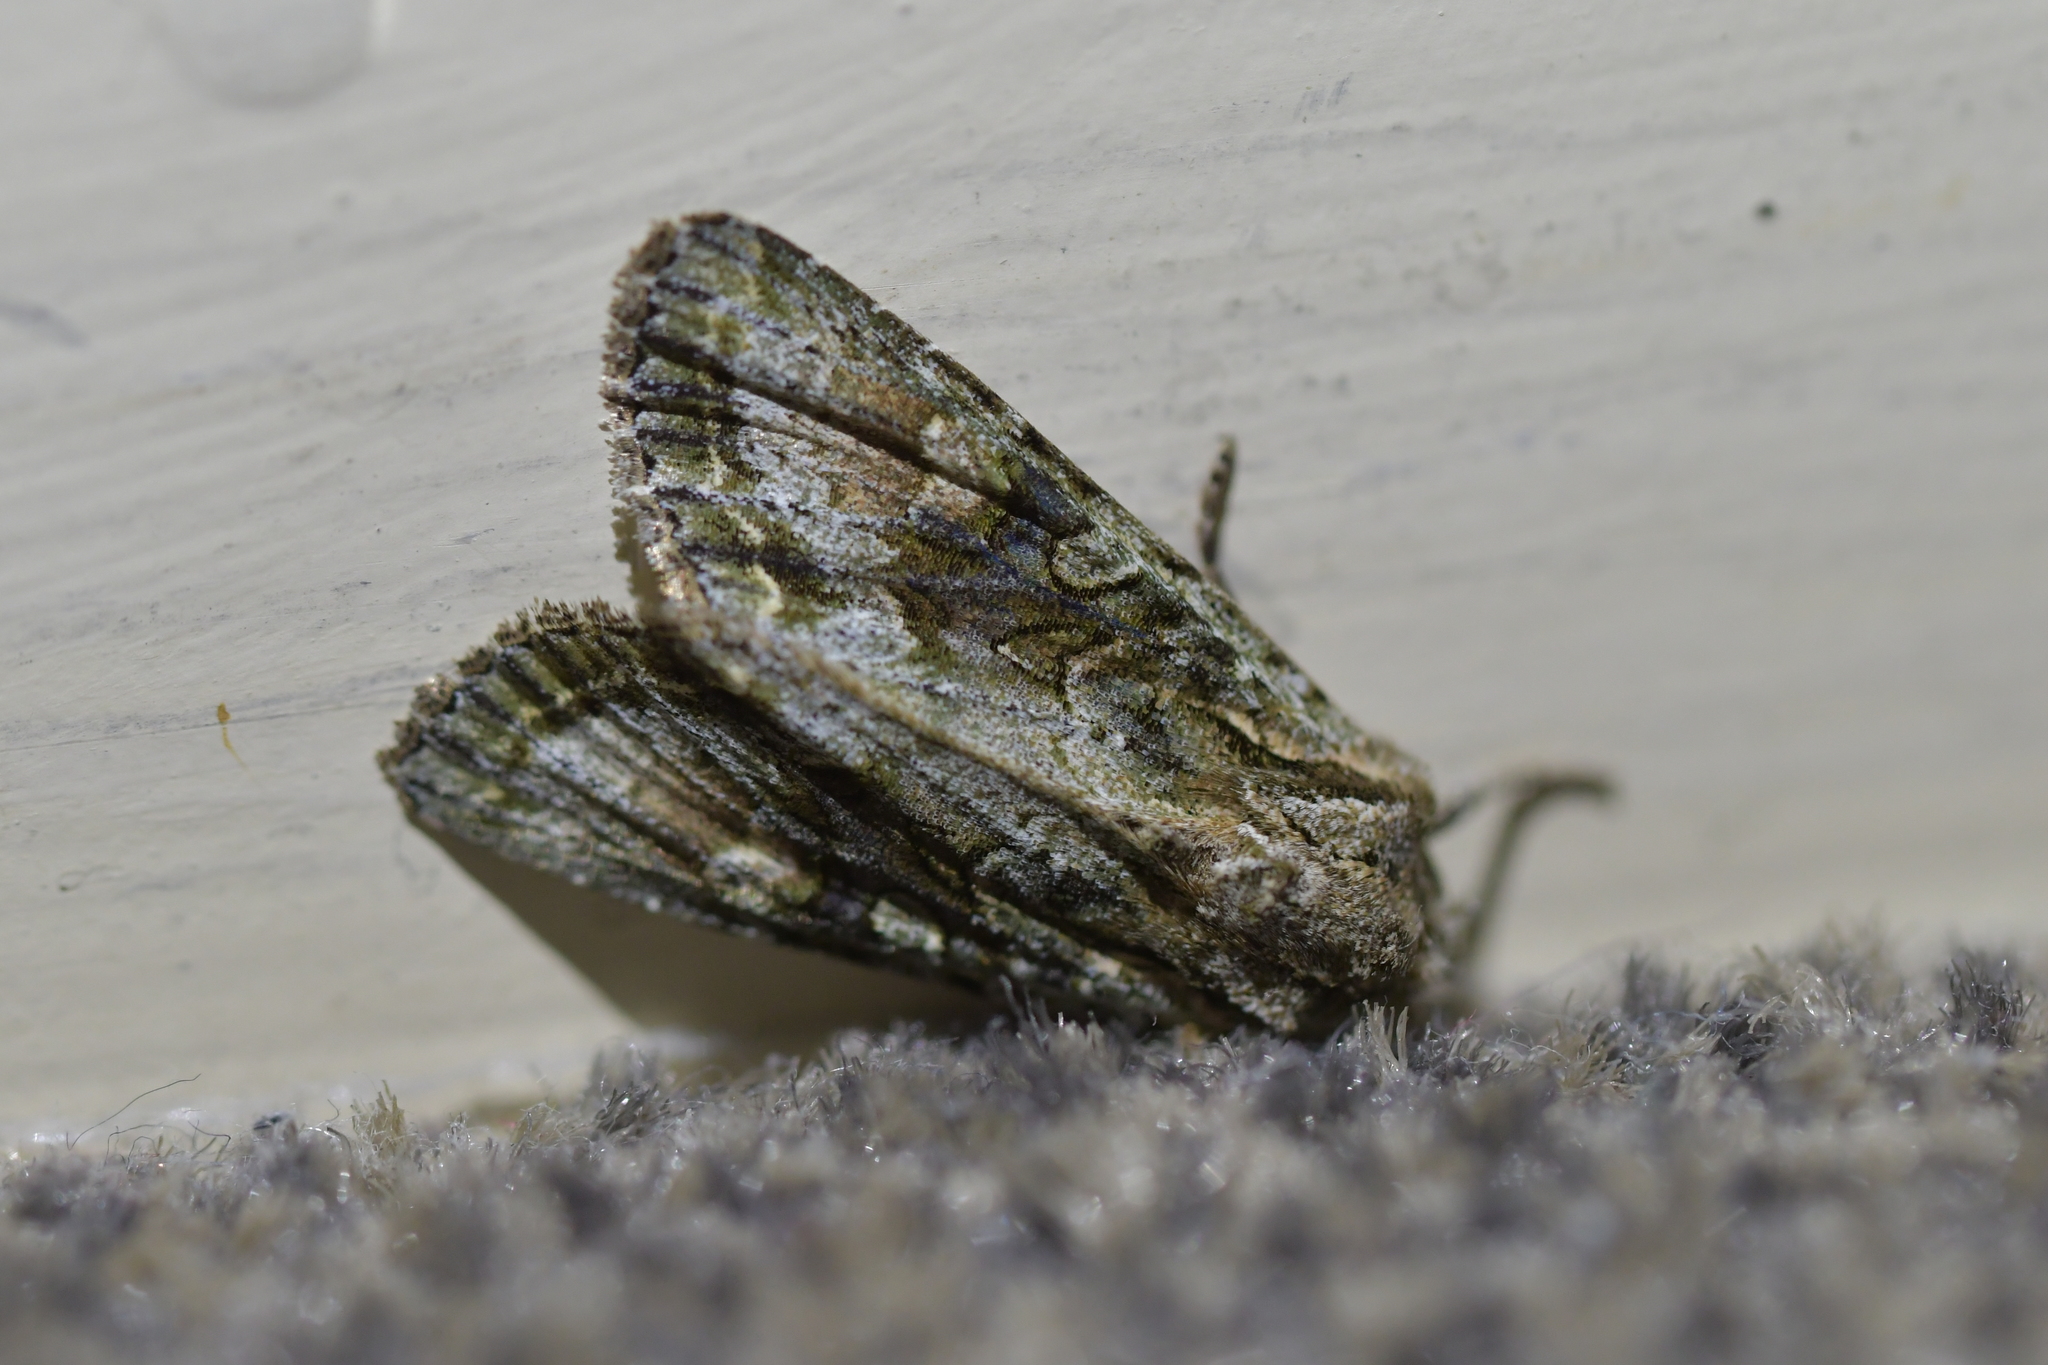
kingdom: Animalia
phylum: Arthropoda
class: Insecta
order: Lepidoptera
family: Noctuidae
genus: Ichneutica
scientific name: Ichneutica mutans
